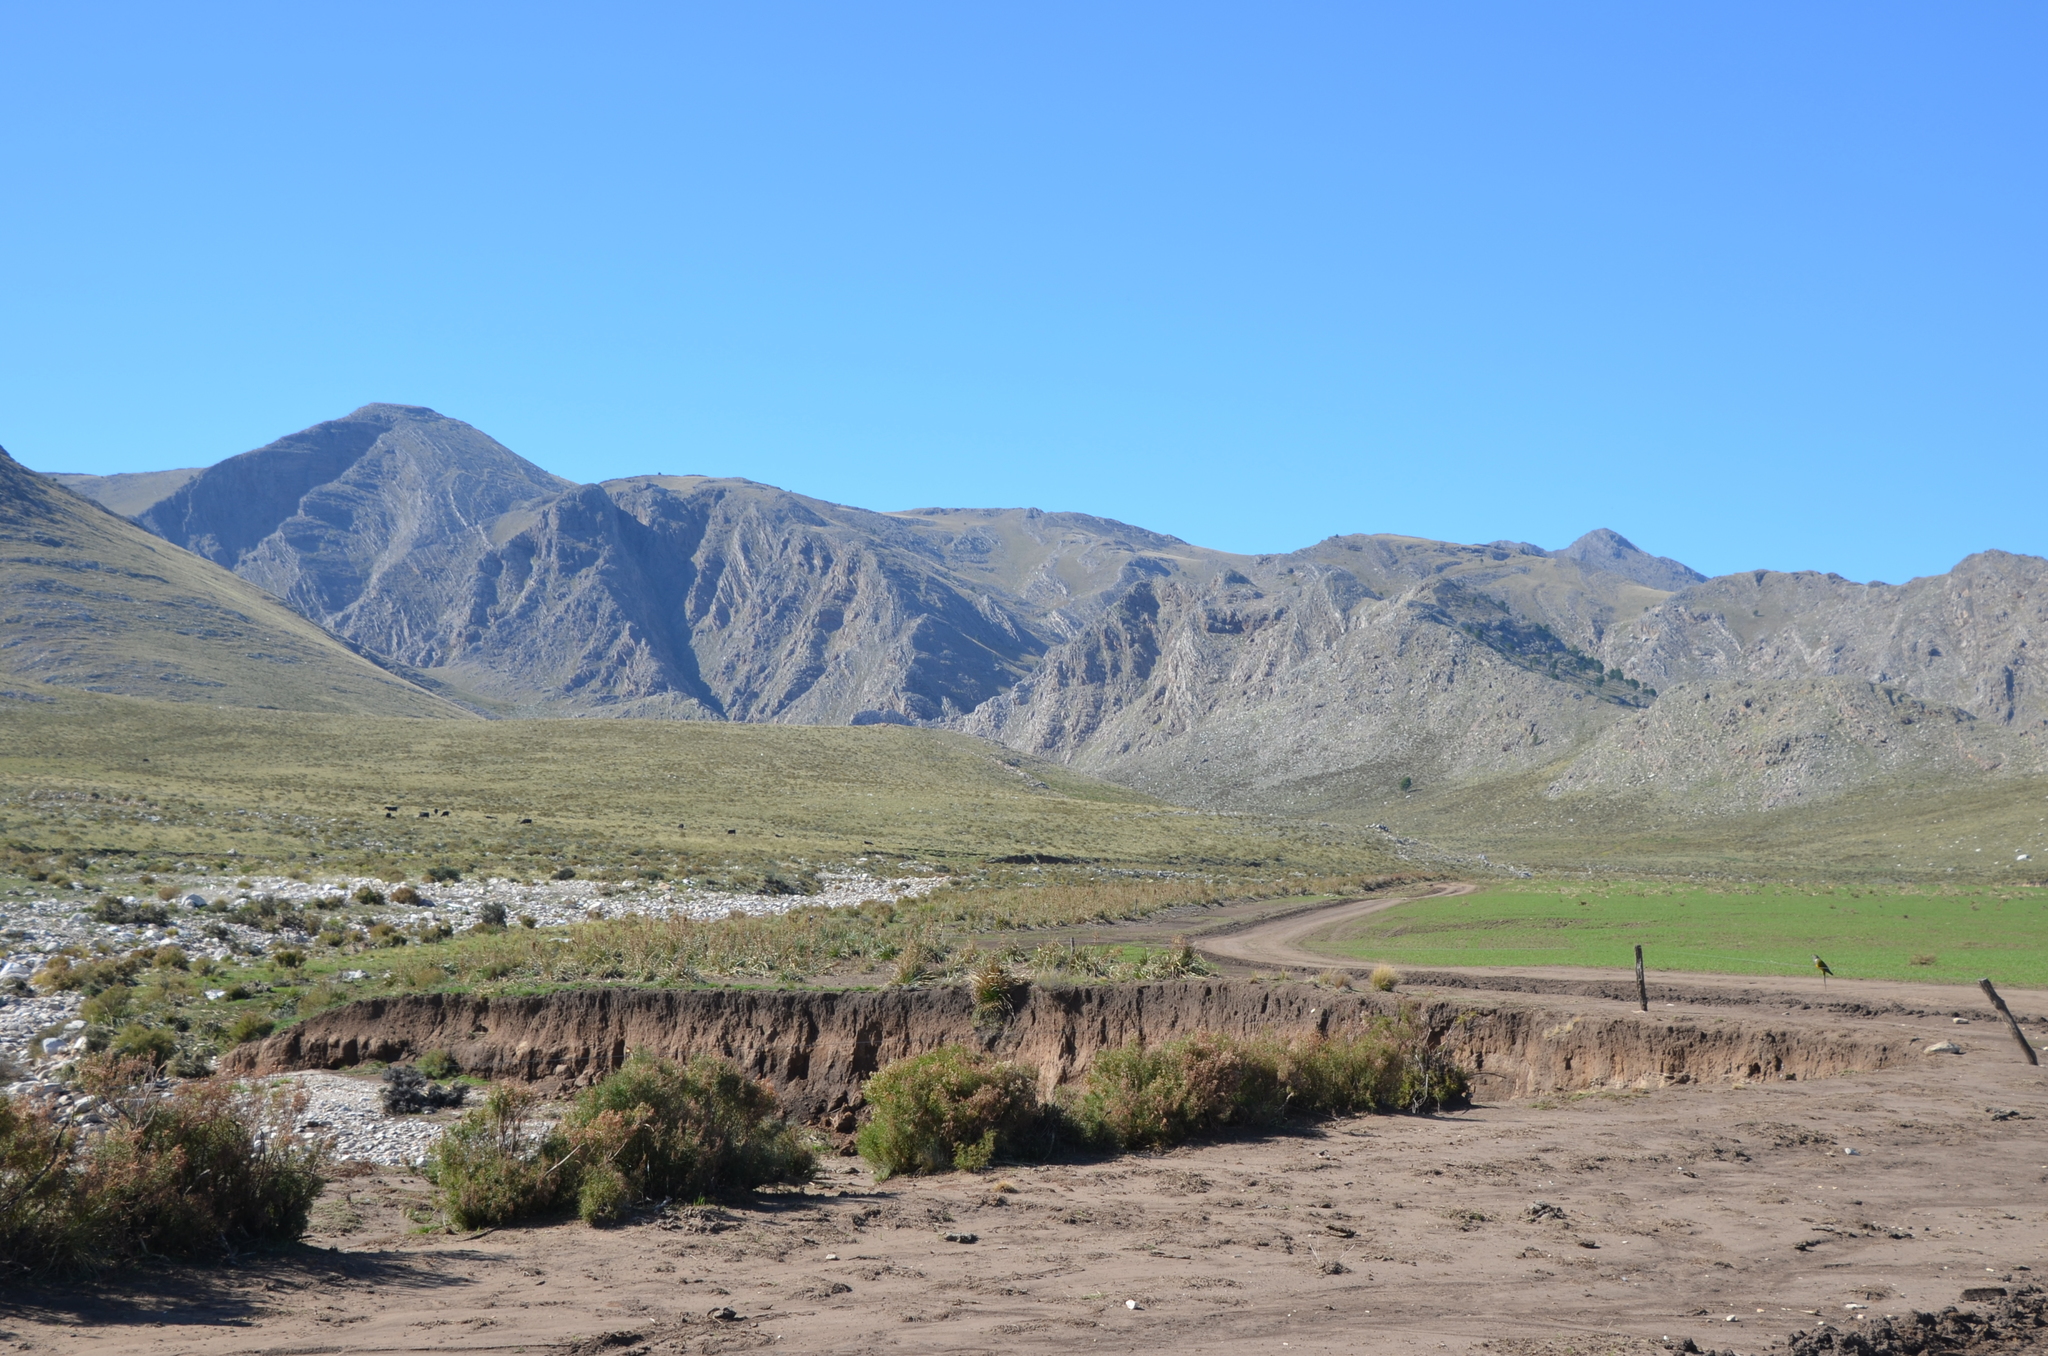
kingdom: Animalia
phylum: Chordata
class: Aves
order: Psittaciformes
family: Psittacidae
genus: Cyanoliseus
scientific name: Cyanoliseus patagonus
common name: Burrowing parrot
